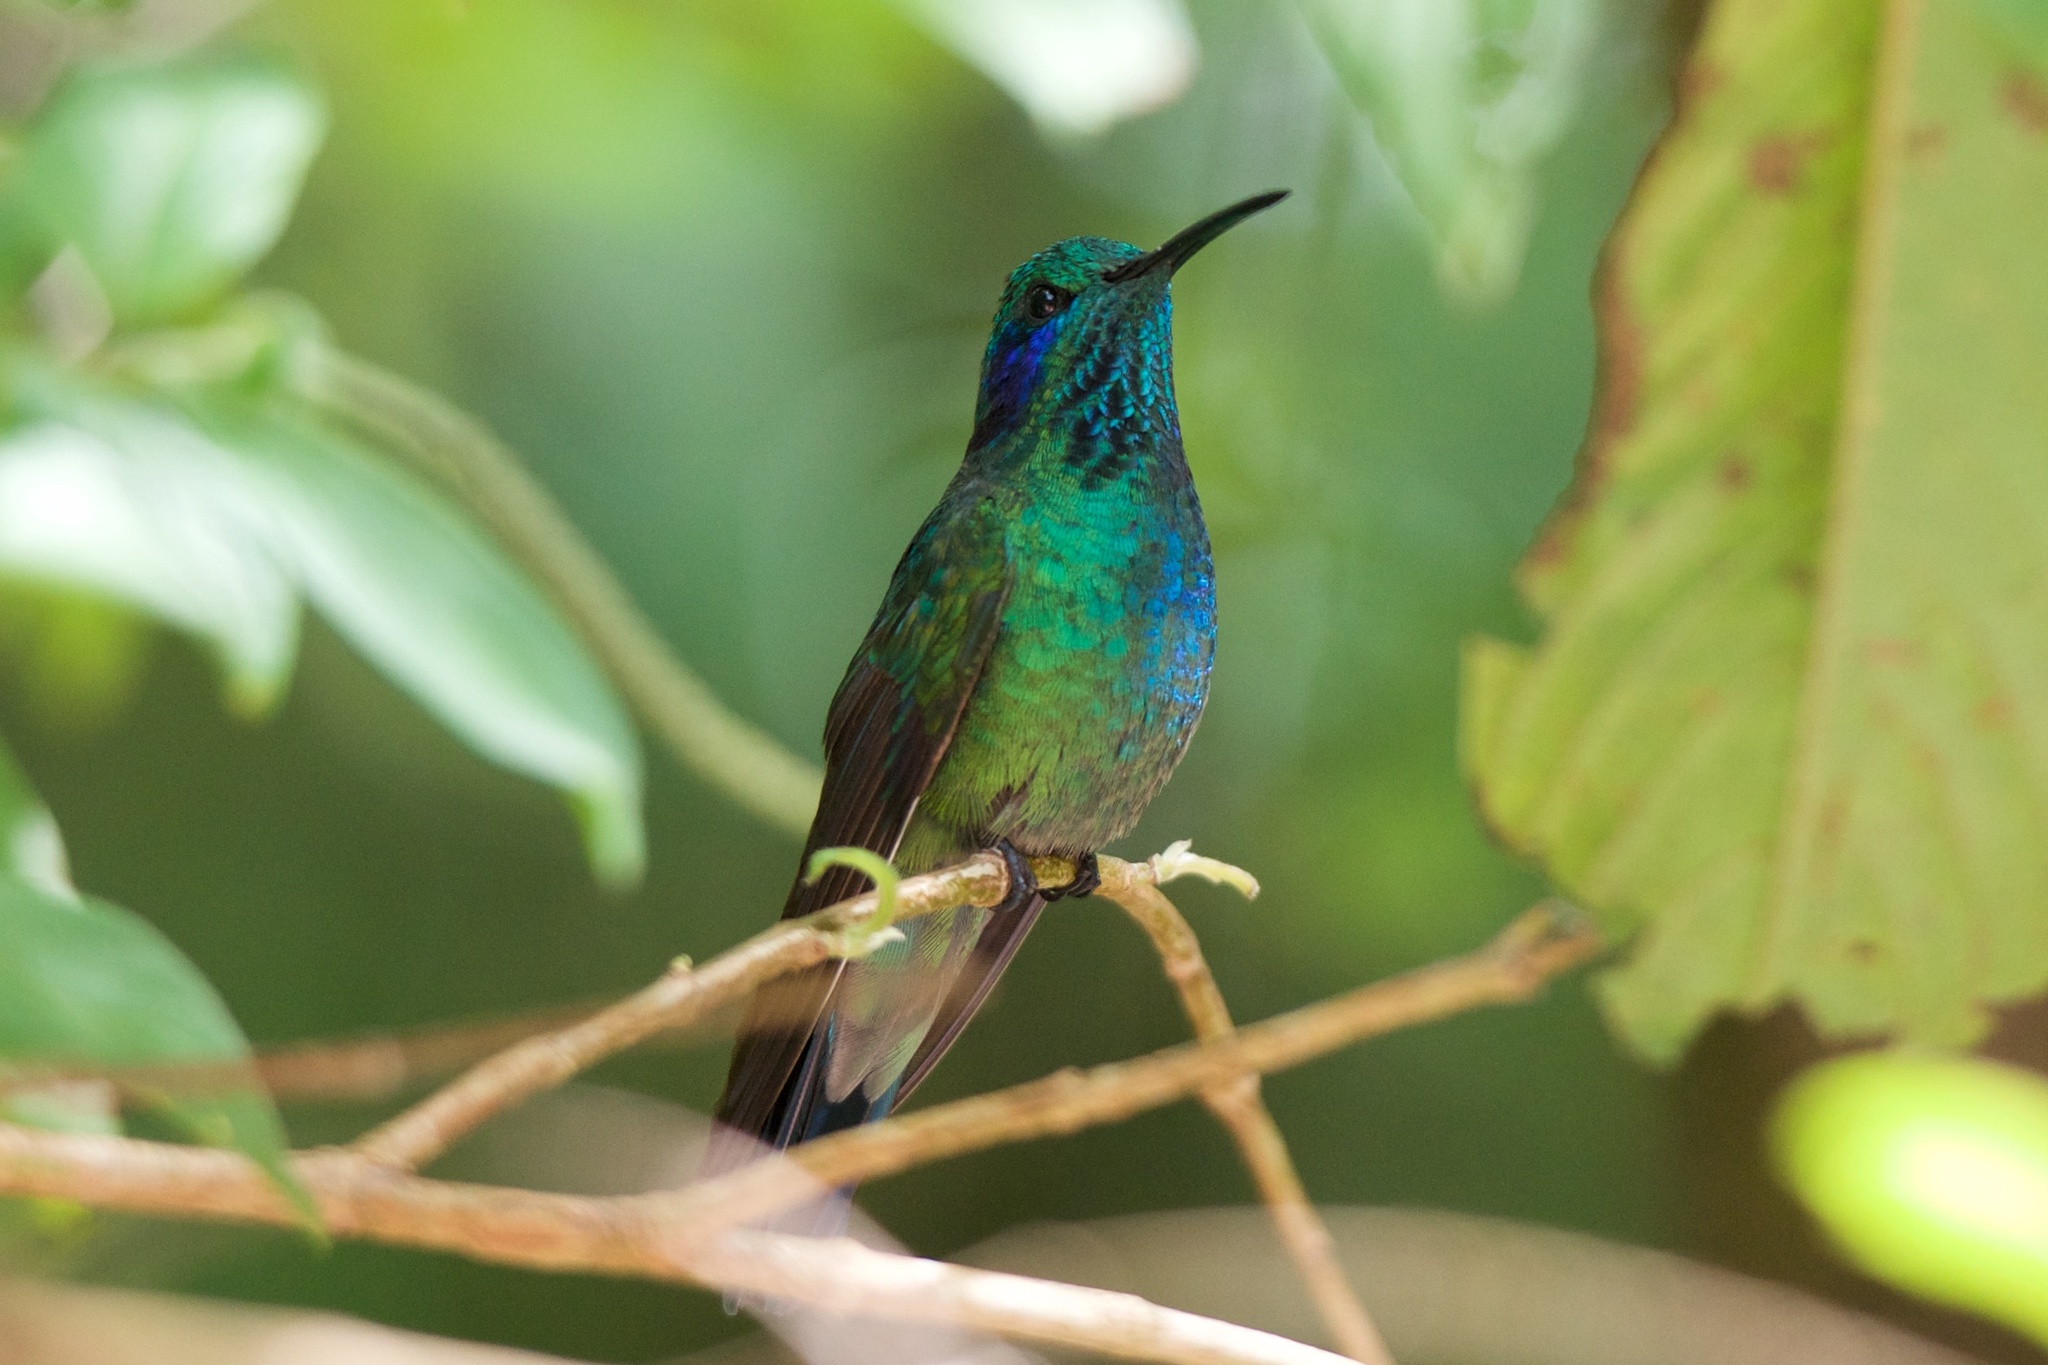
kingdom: Animalia
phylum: Chordata
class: Aves
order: Apodiformes
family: Trochilidae
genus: Colibri
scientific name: Colibri cyanotus
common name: Lesser violetear
